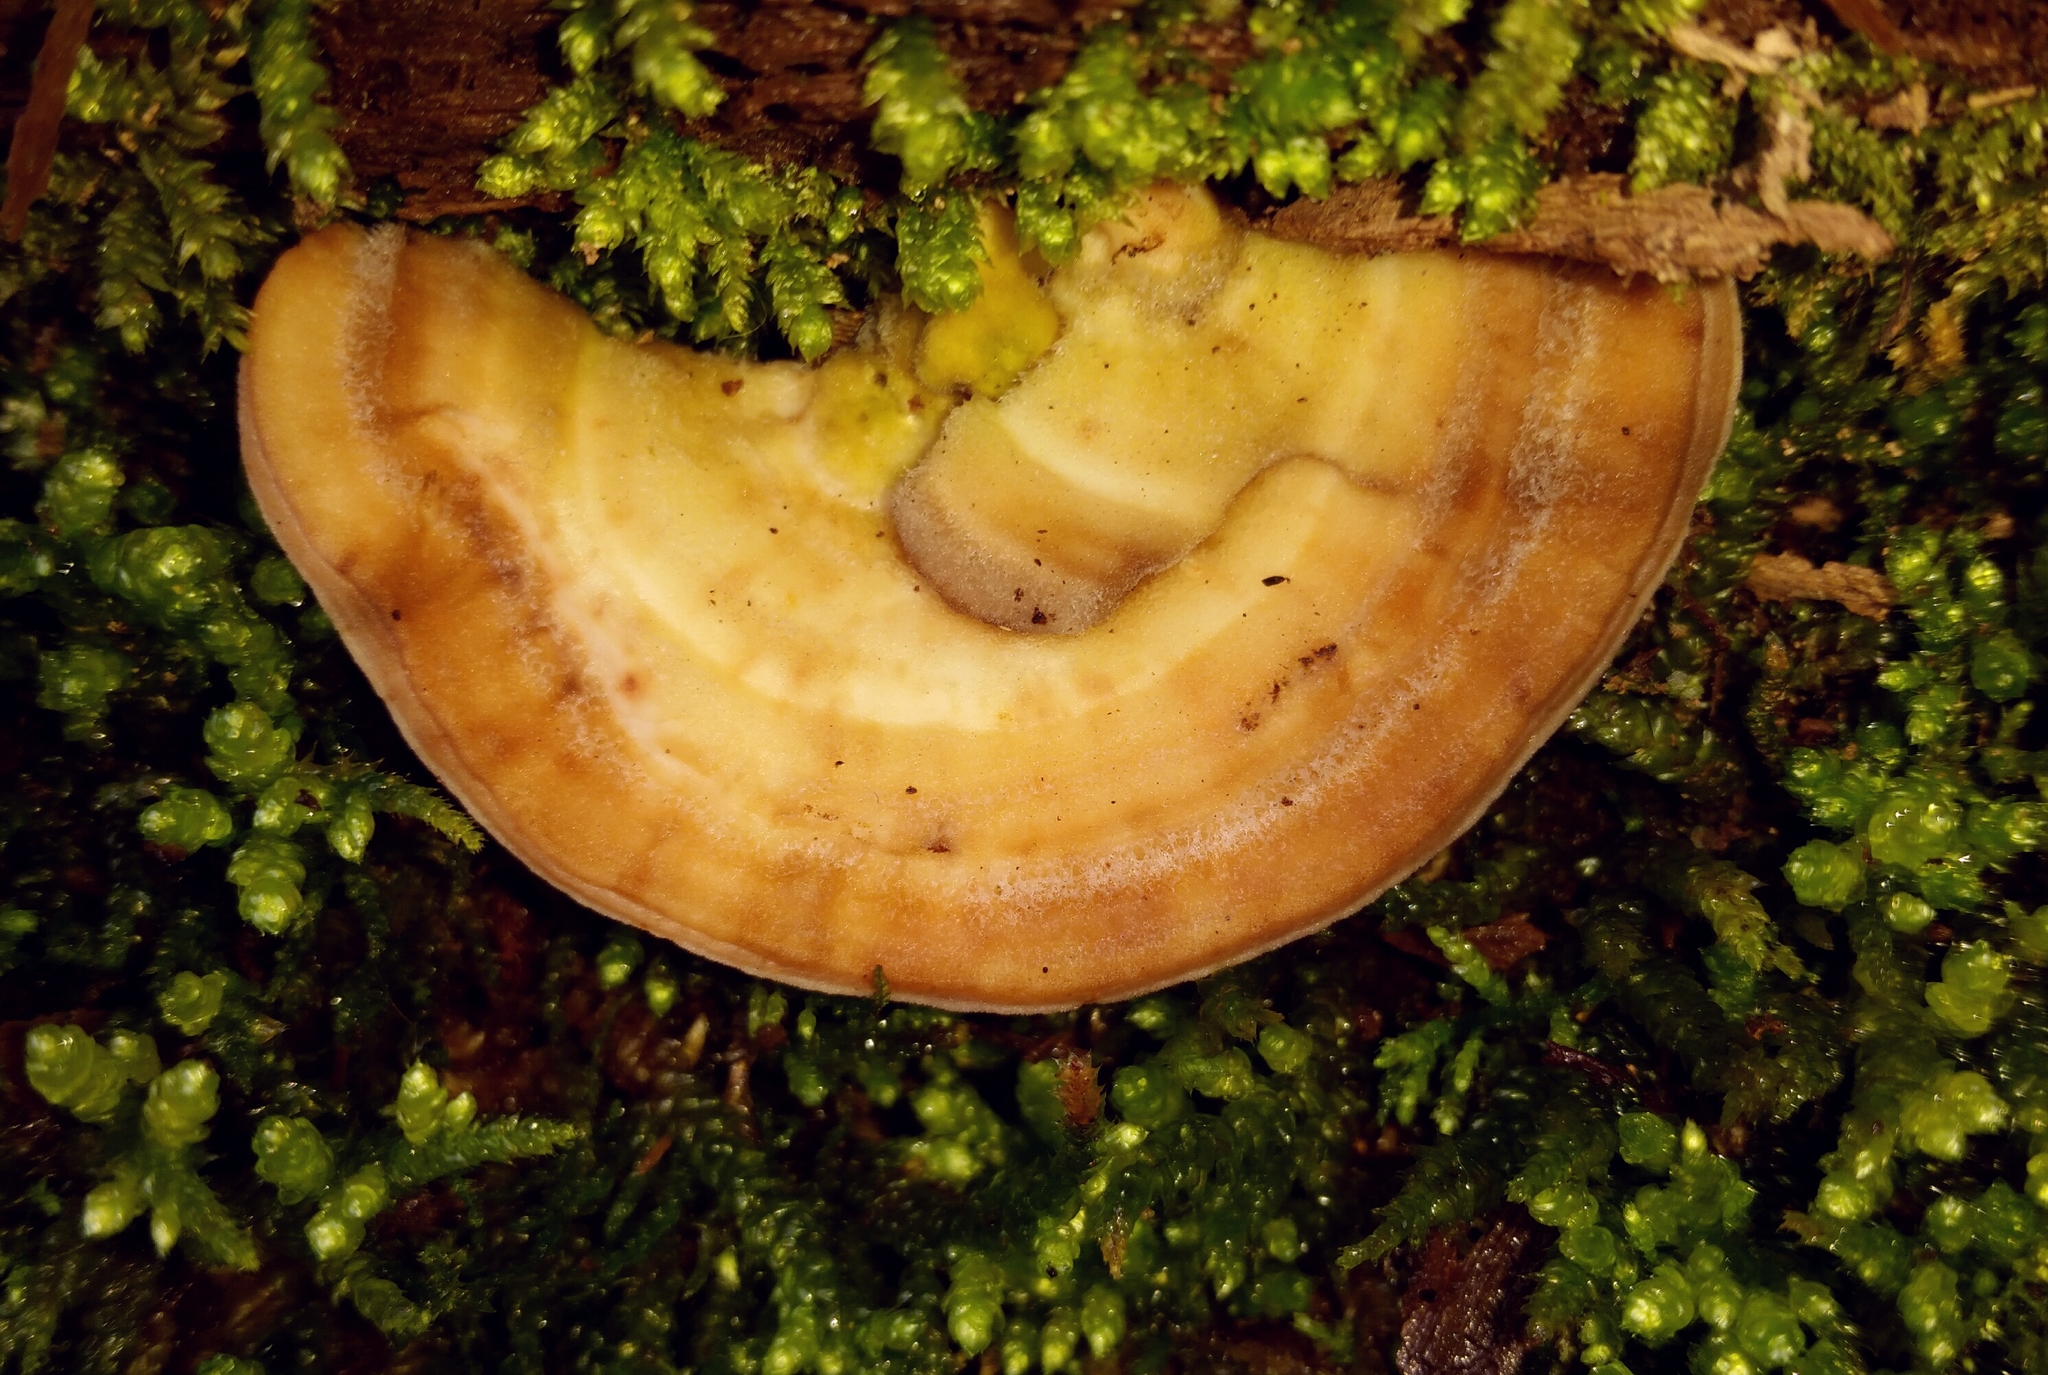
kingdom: Fungi
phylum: Basidiomycota
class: Agaricomycetes
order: Polyporales
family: Polyporaceae
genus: Lenzites
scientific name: Lenzites betulinus
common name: Birch mazegill
